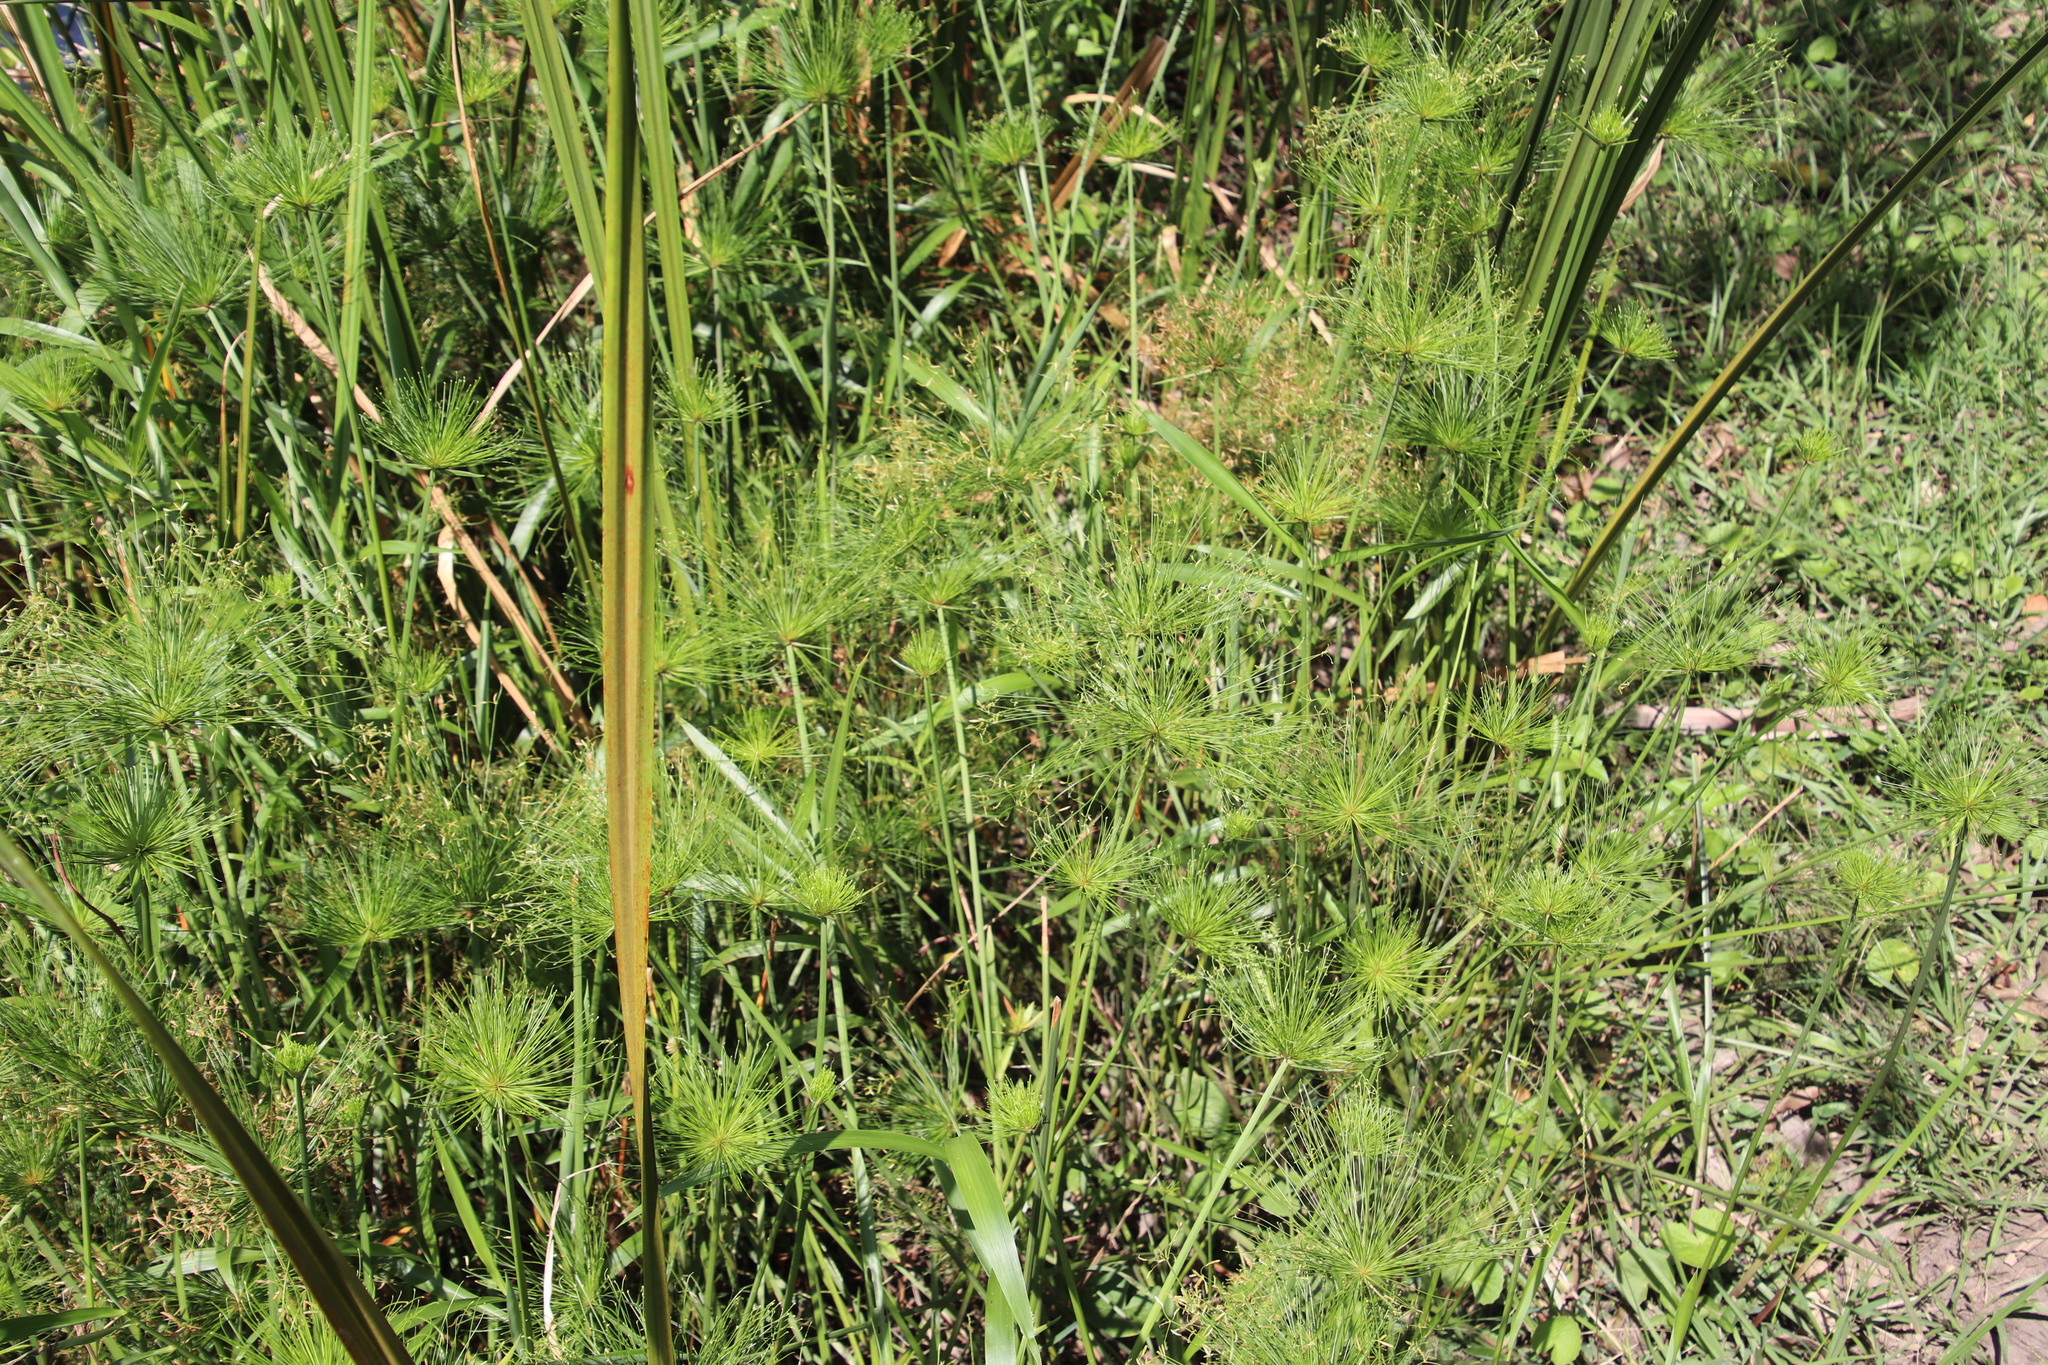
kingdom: Plantae
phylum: Tracheophyta
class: Liliopsida
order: Poales
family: Cyperaceae
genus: Cyperus
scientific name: Cyperus prolifer
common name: Miniature flatsedge
